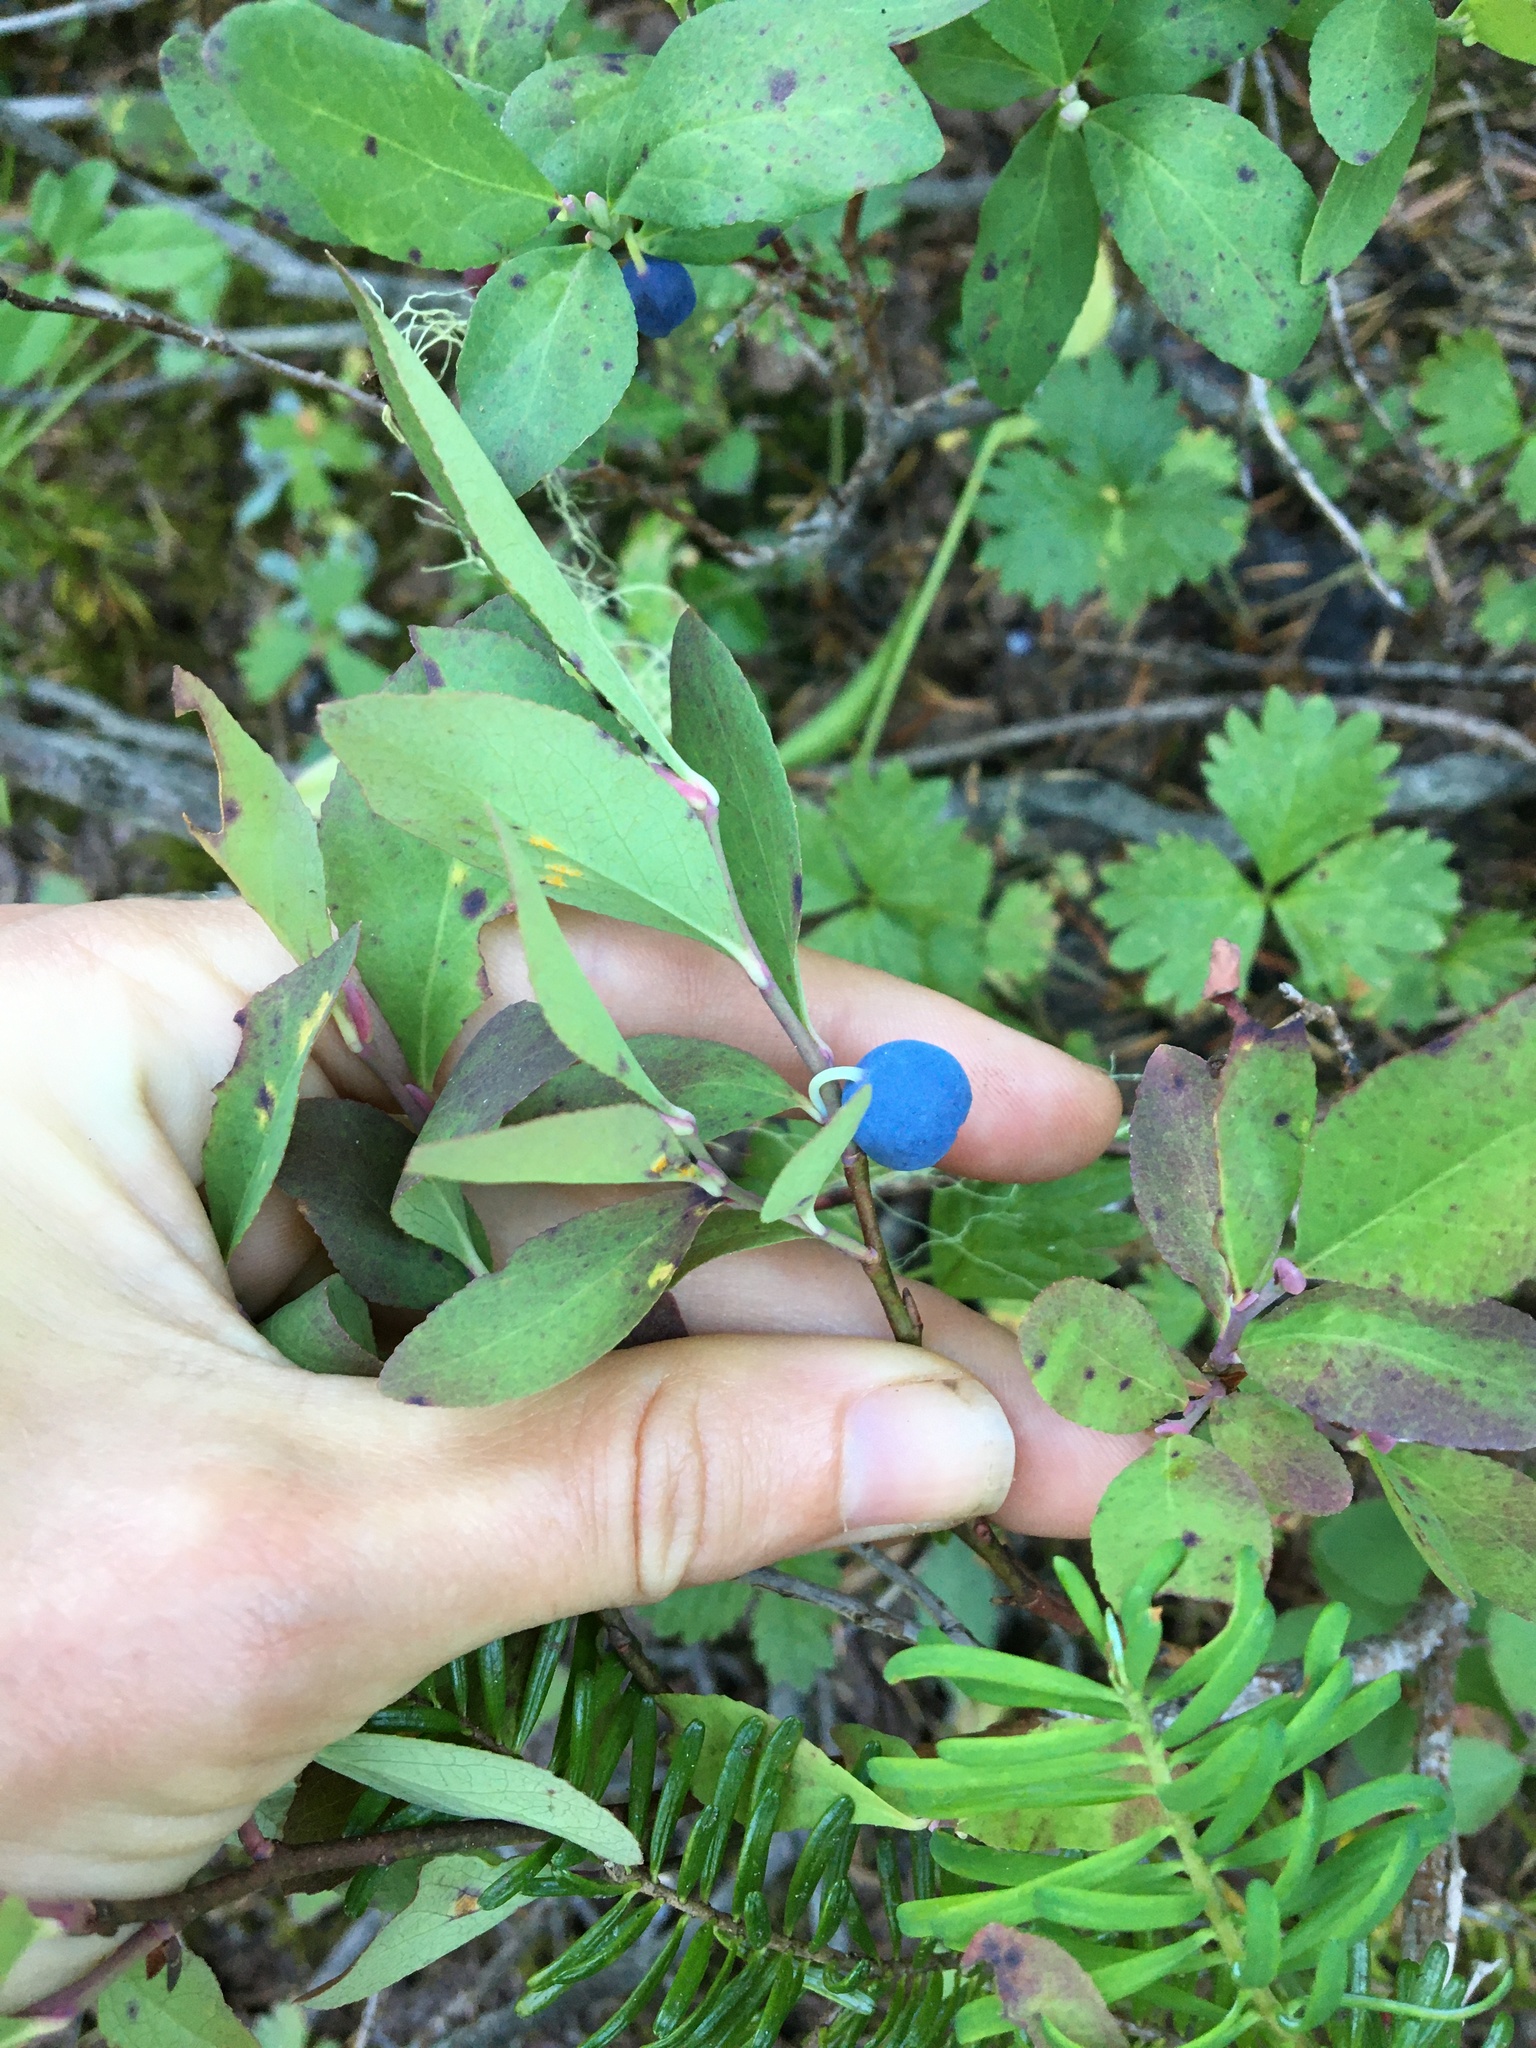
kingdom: Plantae
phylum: Tracheophyta
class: Magnoliopsida
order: Ericales
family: Ericaceae
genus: Vaccinium
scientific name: Vaccinium deliciosum
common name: Cascade bilberry
